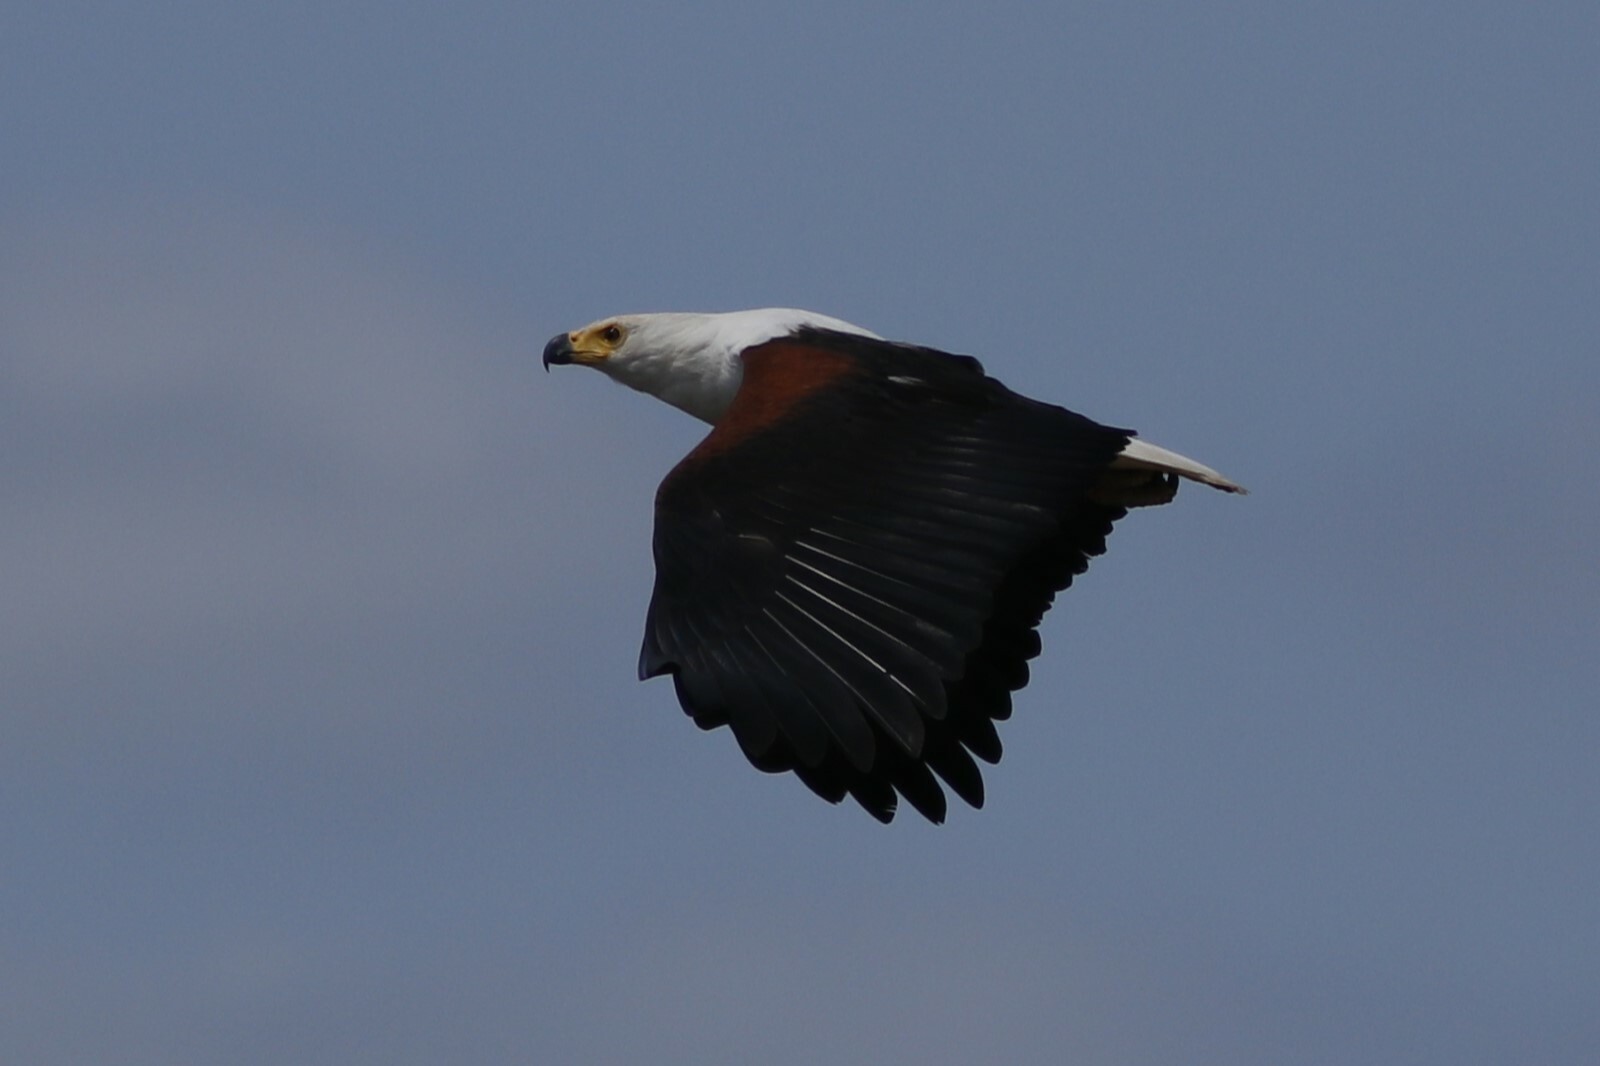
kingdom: Animalia
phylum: Chordata
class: Aves
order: Accipitriformes
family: Accipitridae
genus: Haliaeetus
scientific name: Haliaeetus vocifer
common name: African fish eagle
